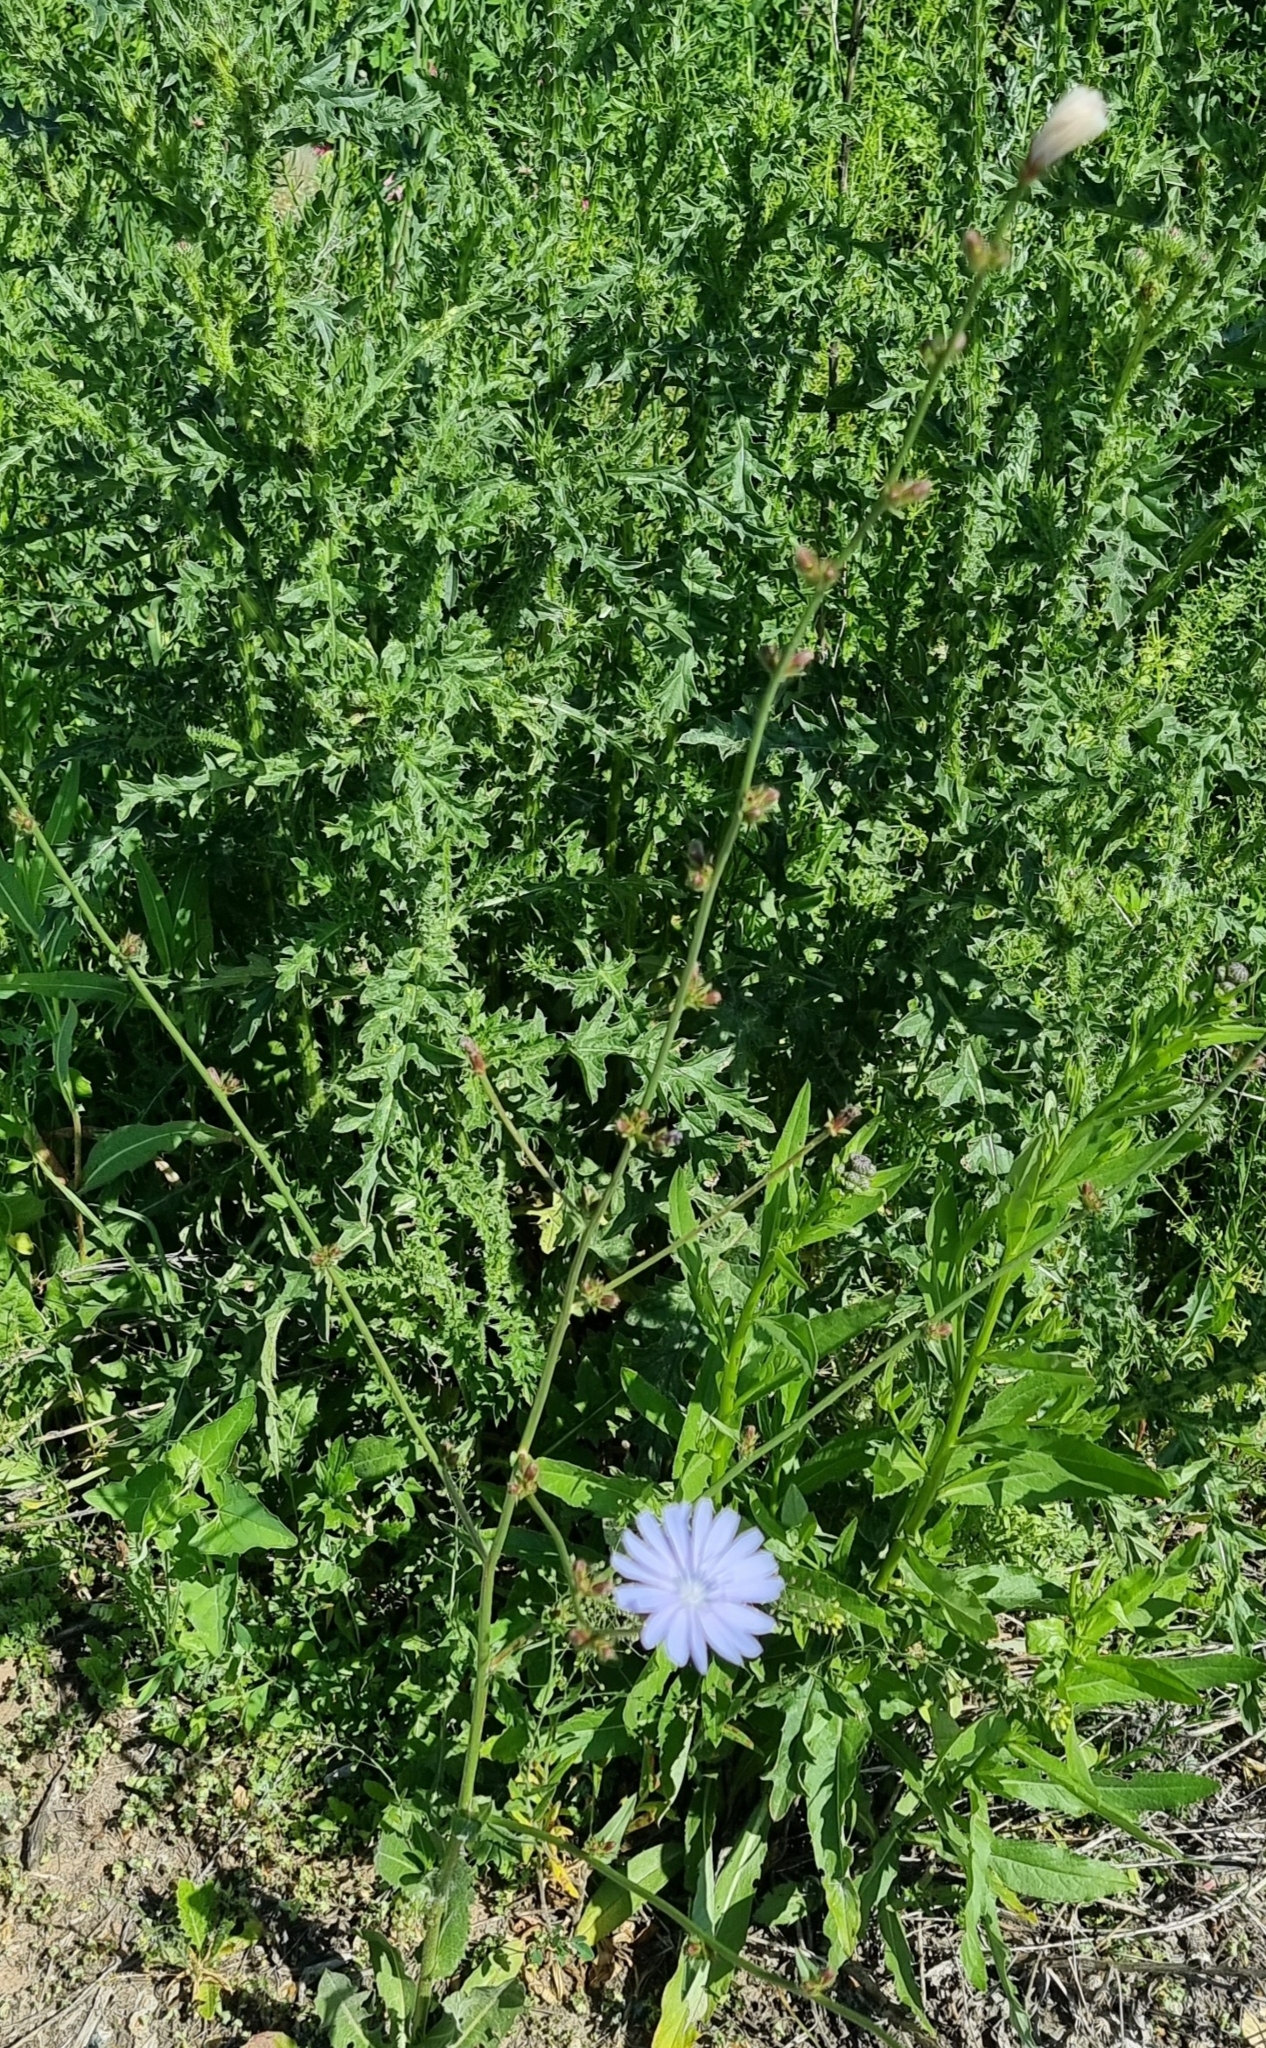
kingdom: Plantae
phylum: Tracheophyta
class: Magnoliopsida
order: Asterales
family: Asteraceae
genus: Cichorium
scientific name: Cichorium intybus
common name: Chicory
